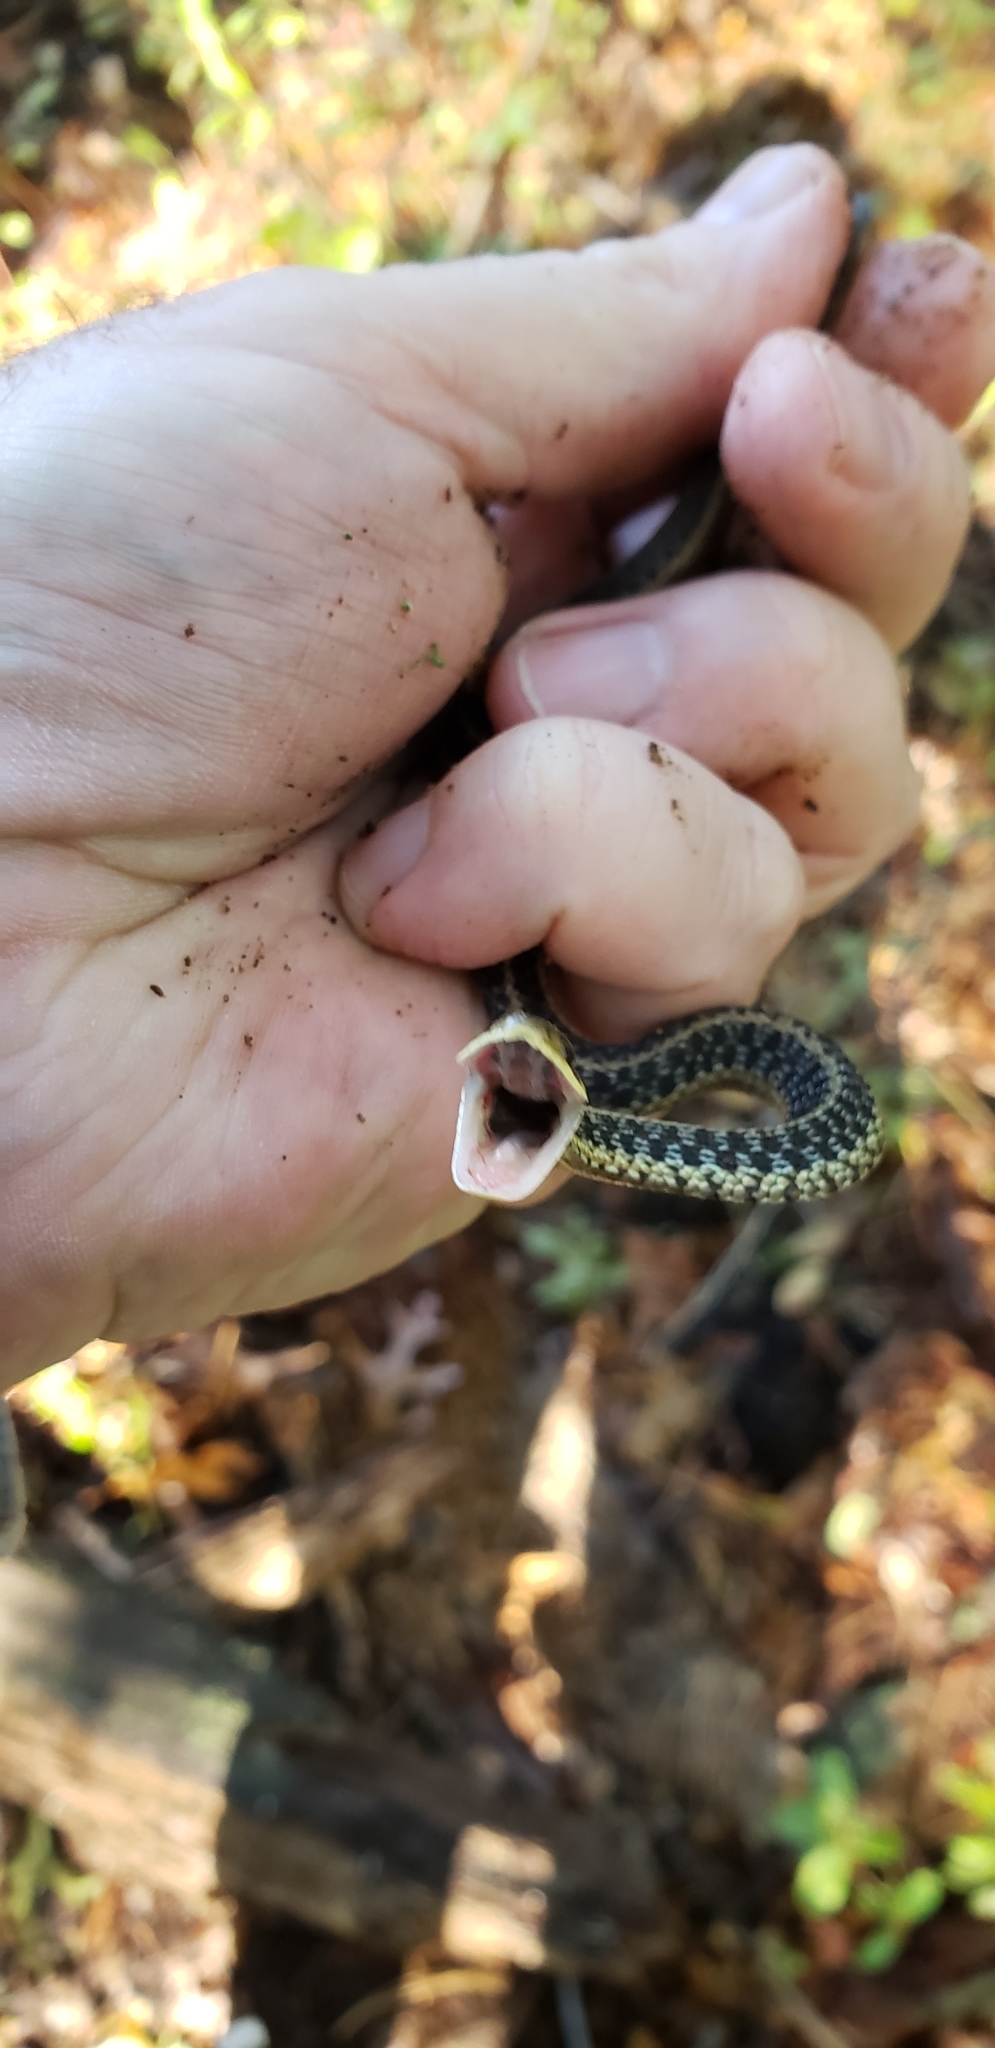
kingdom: Animalia
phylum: Chordata
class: Squamata
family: Colubridae
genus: Thamnophis
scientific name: Thamnophis sirtalis
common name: Common garter snake
